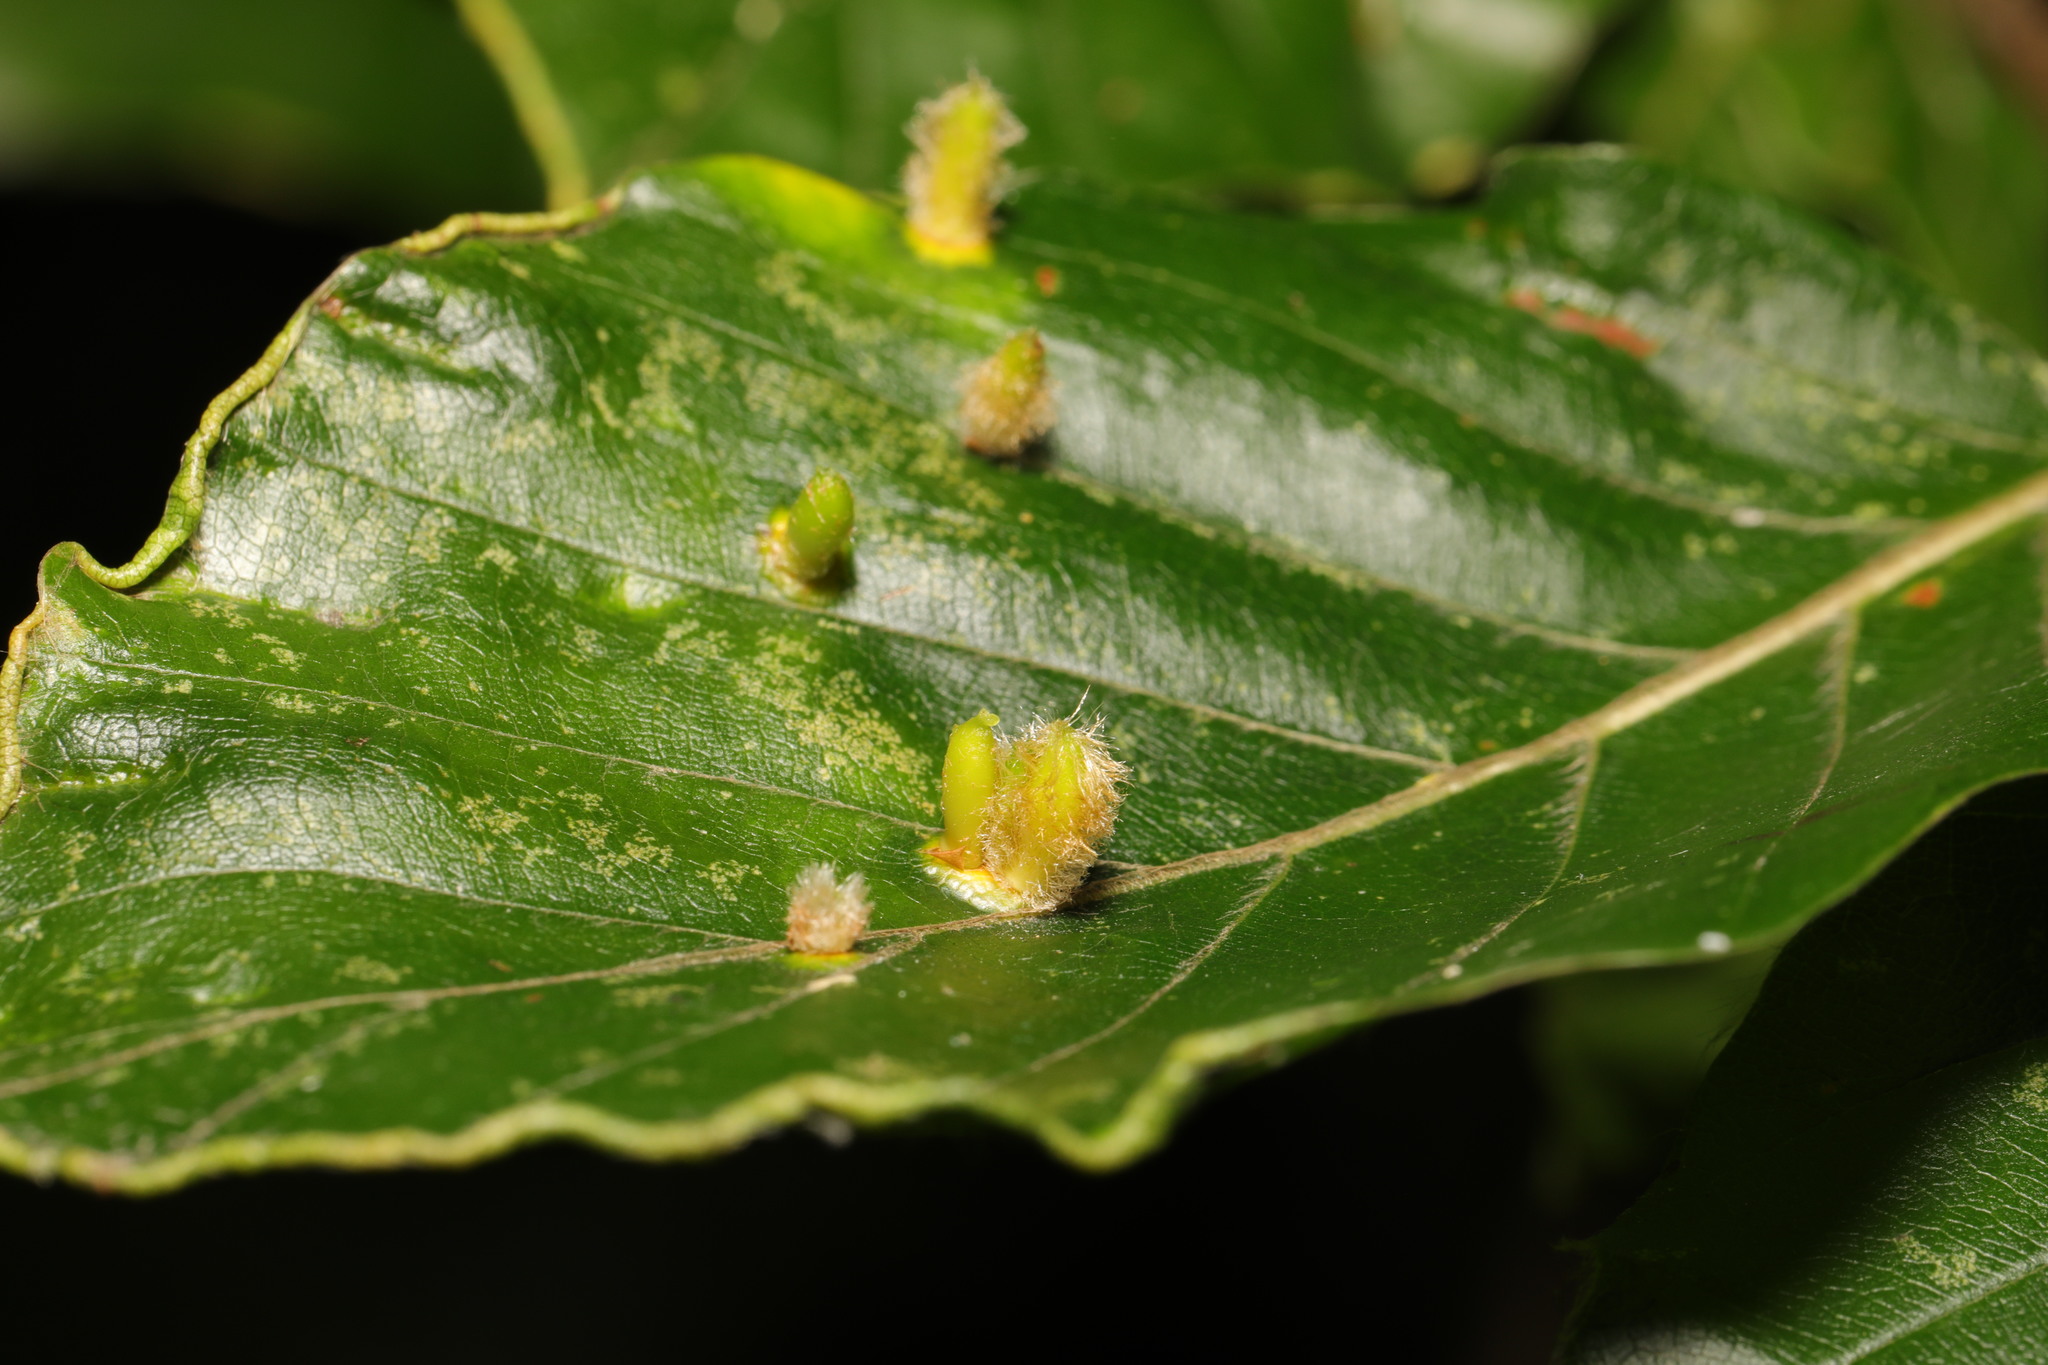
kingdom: Animalia
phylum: Arthropoda
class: Insecta
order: Diptera
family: Cecidomyiidae
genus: Hartigiola
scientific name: Hartigiola annulipes
